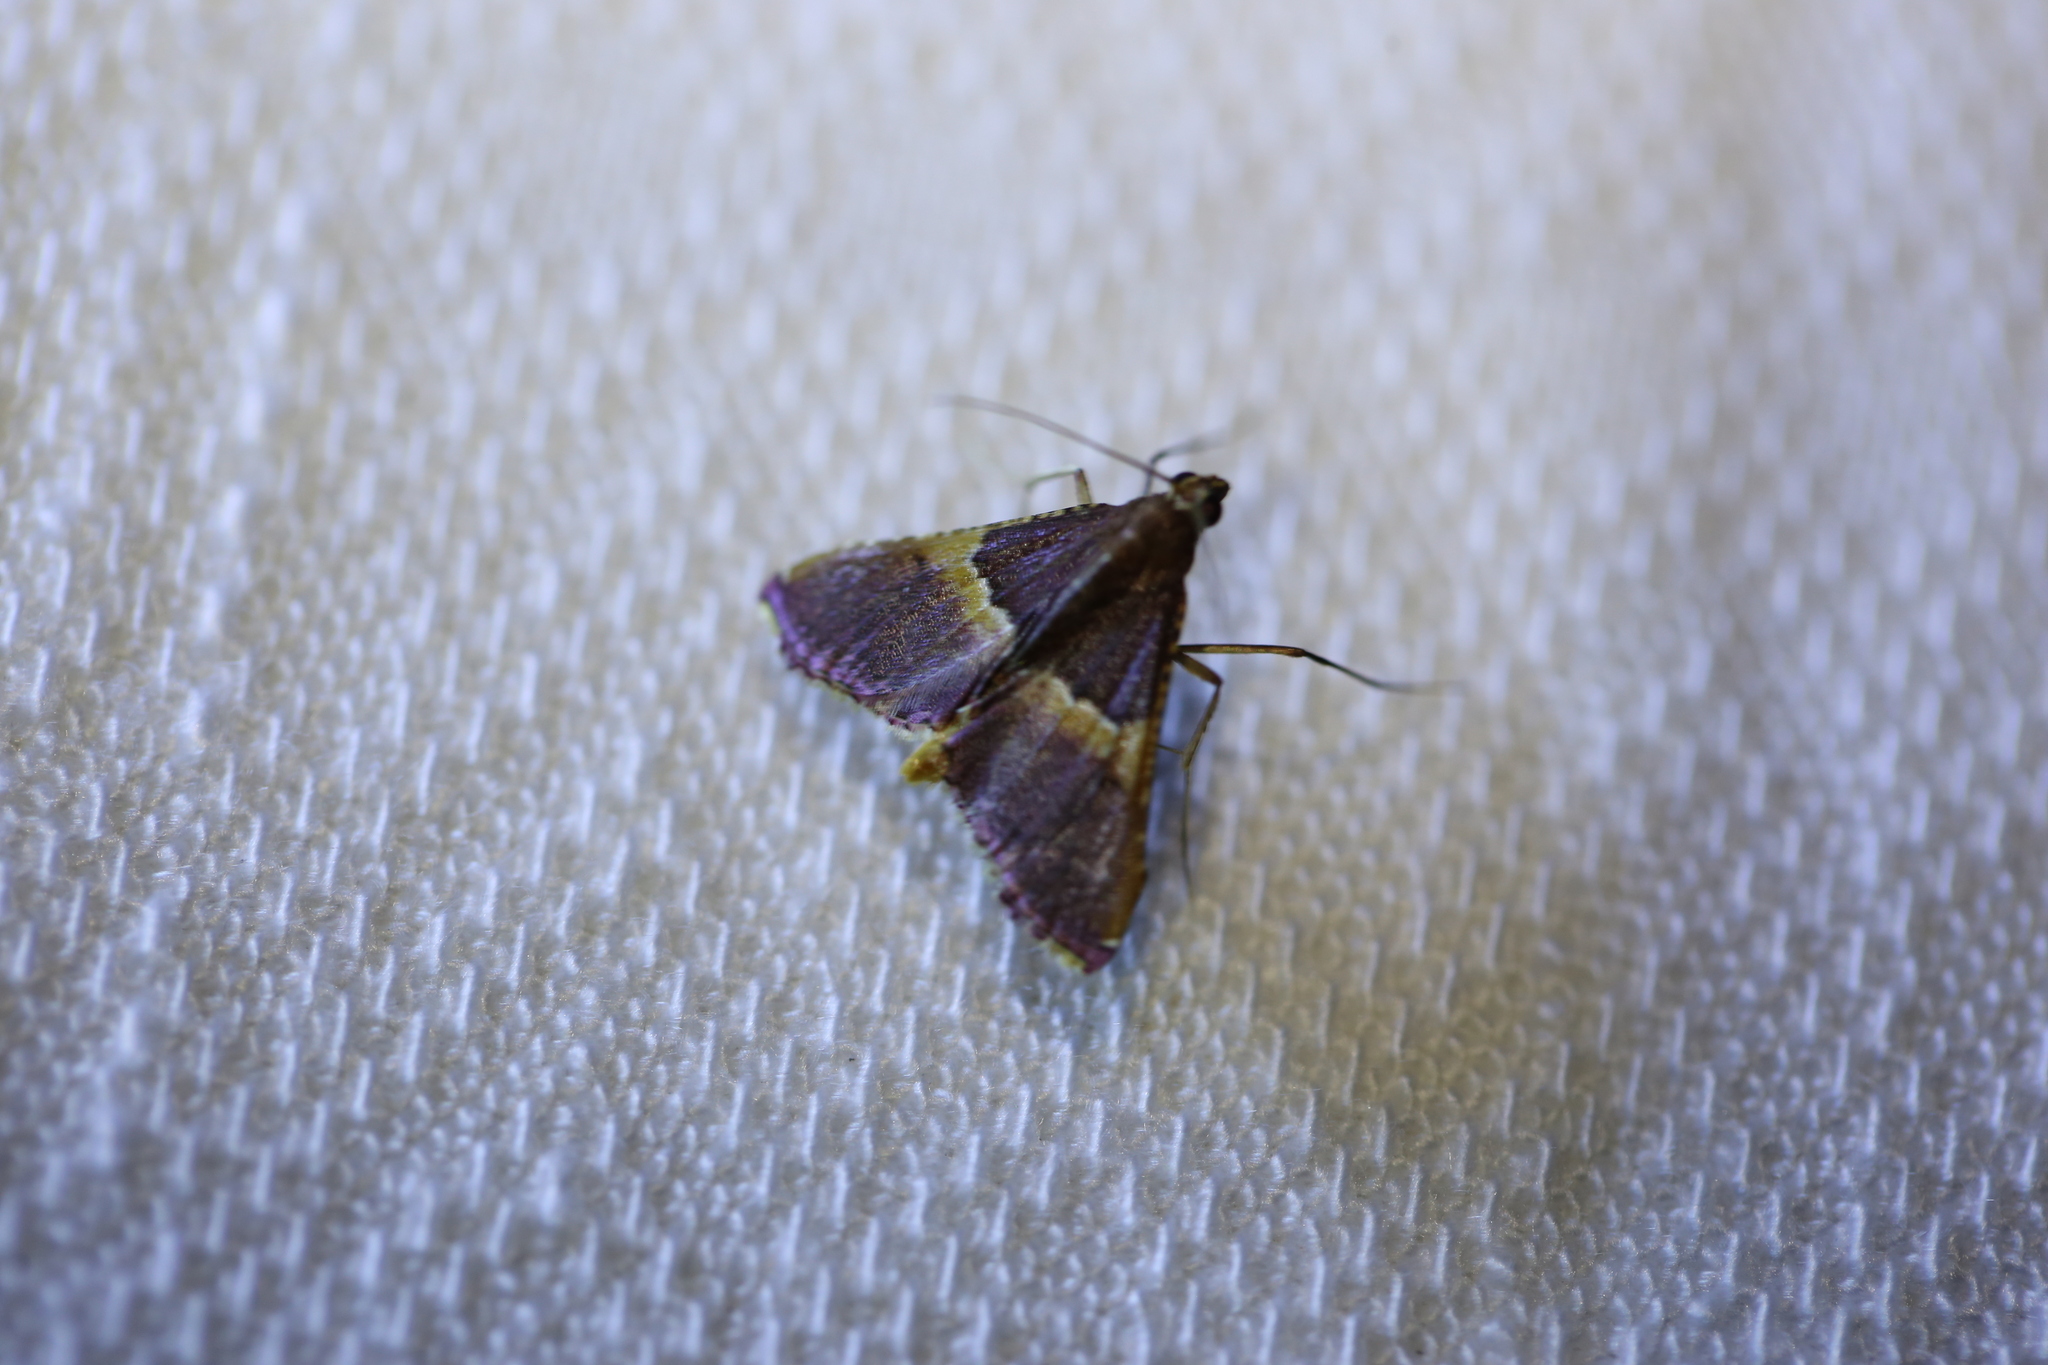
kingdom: Animalia
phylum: Arthropoda
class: Insecta
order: Lepidoptera
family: Pyralidae
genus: Endotricha
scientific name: Endotricha mesenterialis
